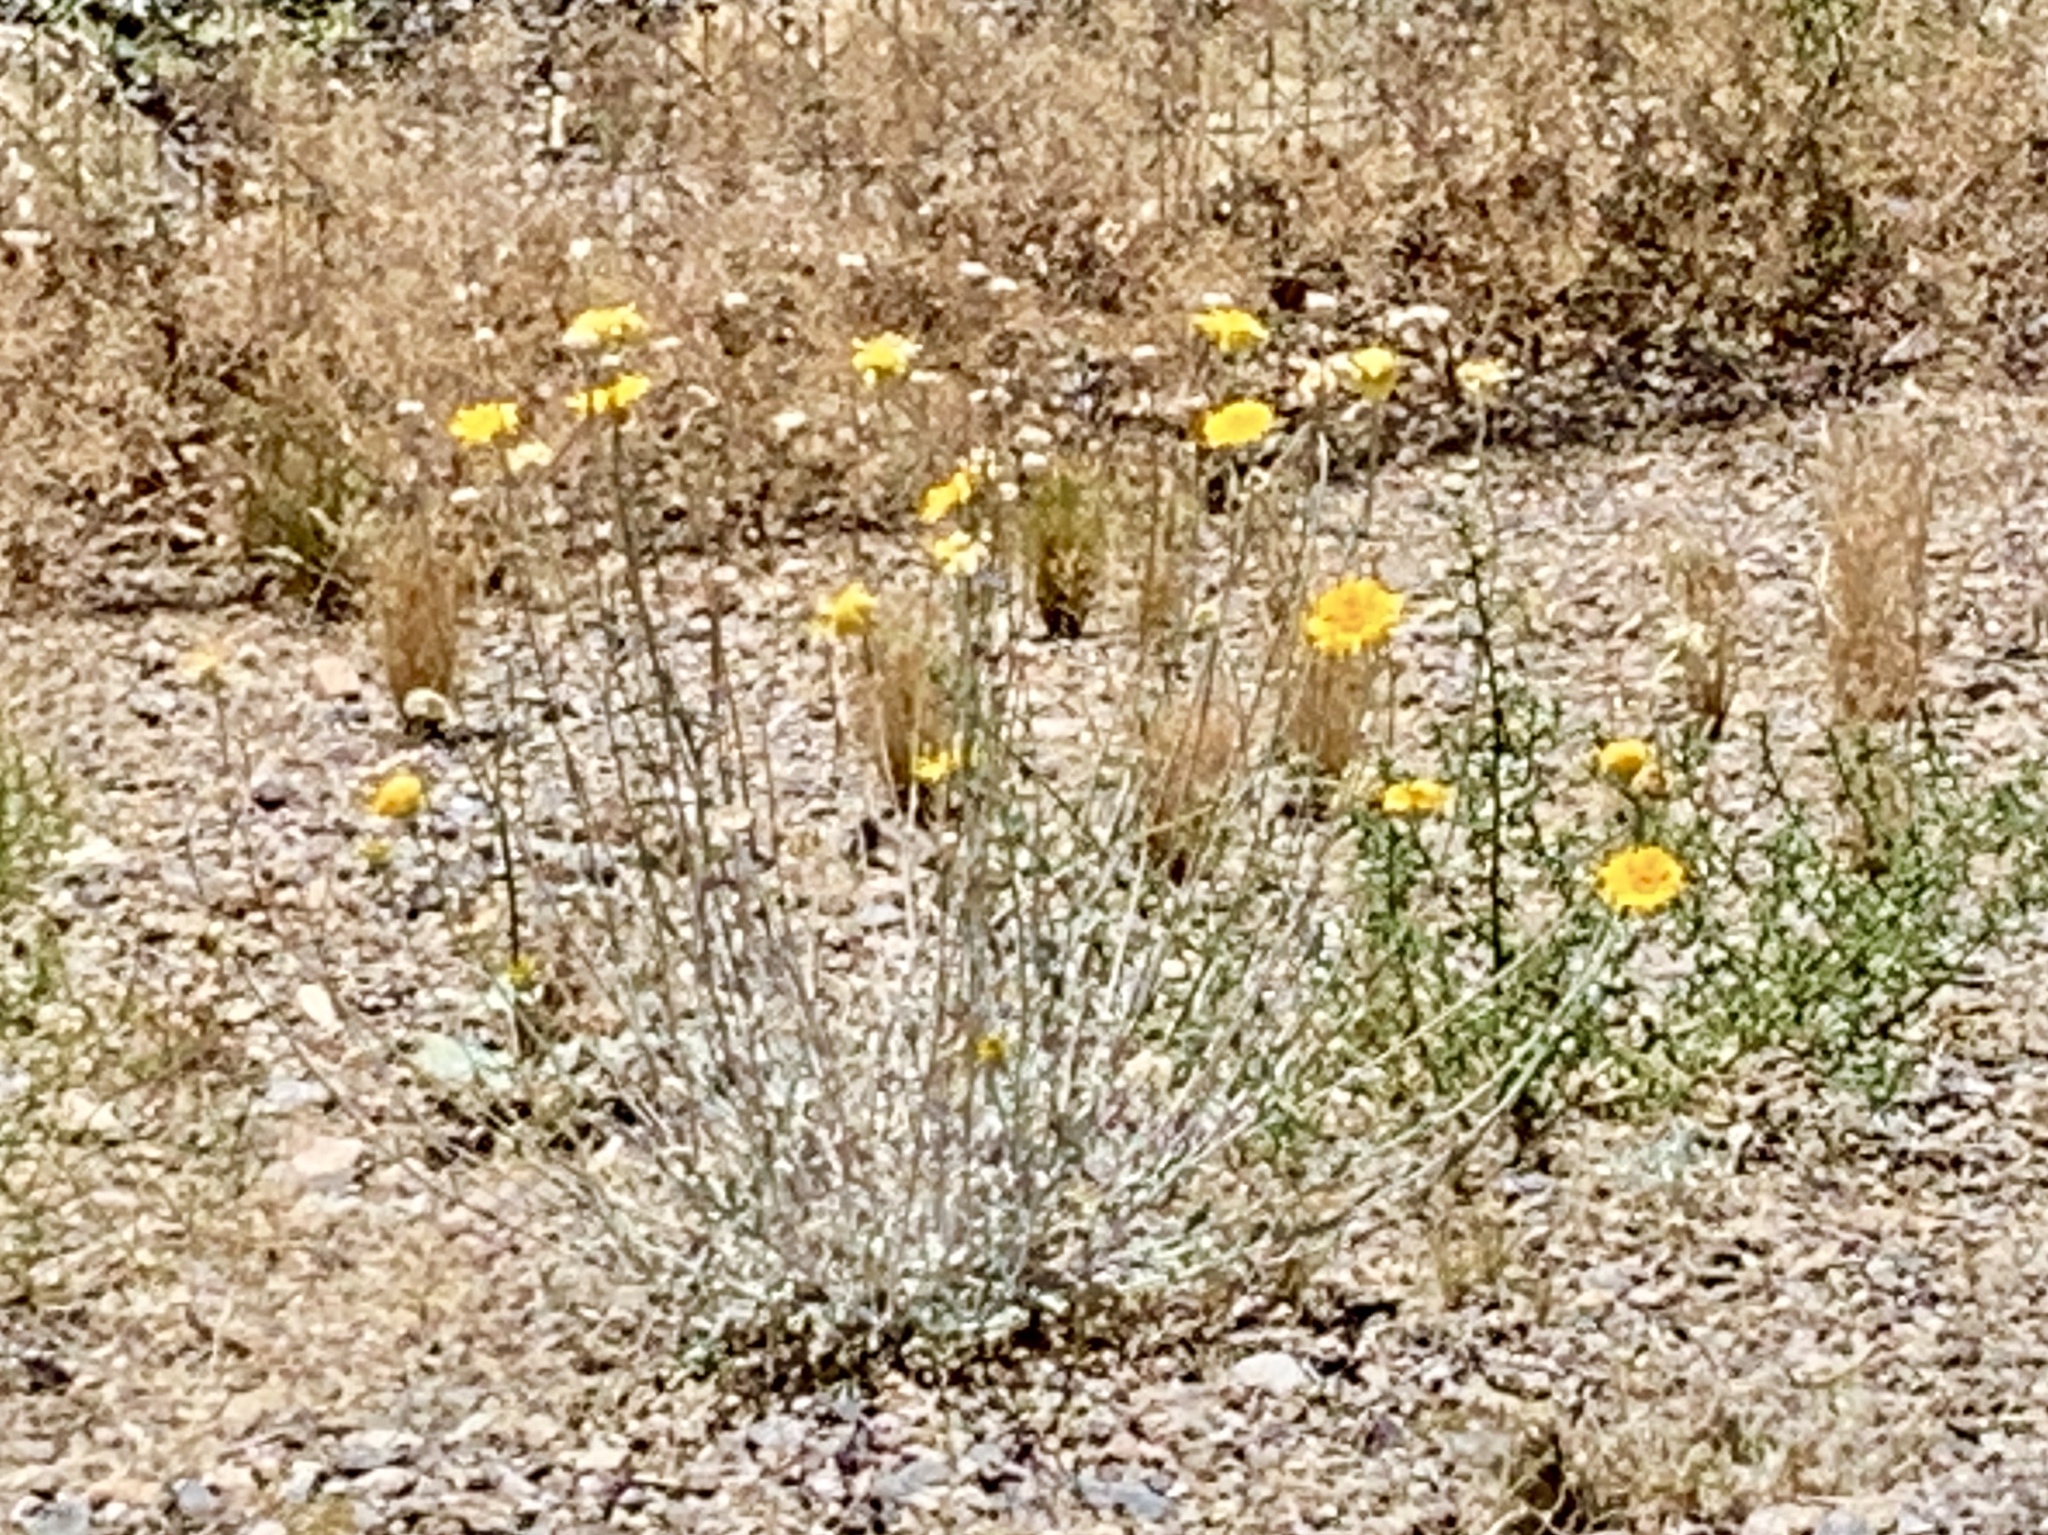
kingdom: Plantae
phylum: Tracheophyta
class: Magnoliopsida
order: Asterales
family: Asteraceae
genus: Baileya
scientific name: Baileya multiradiata
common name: Desert-marigold
